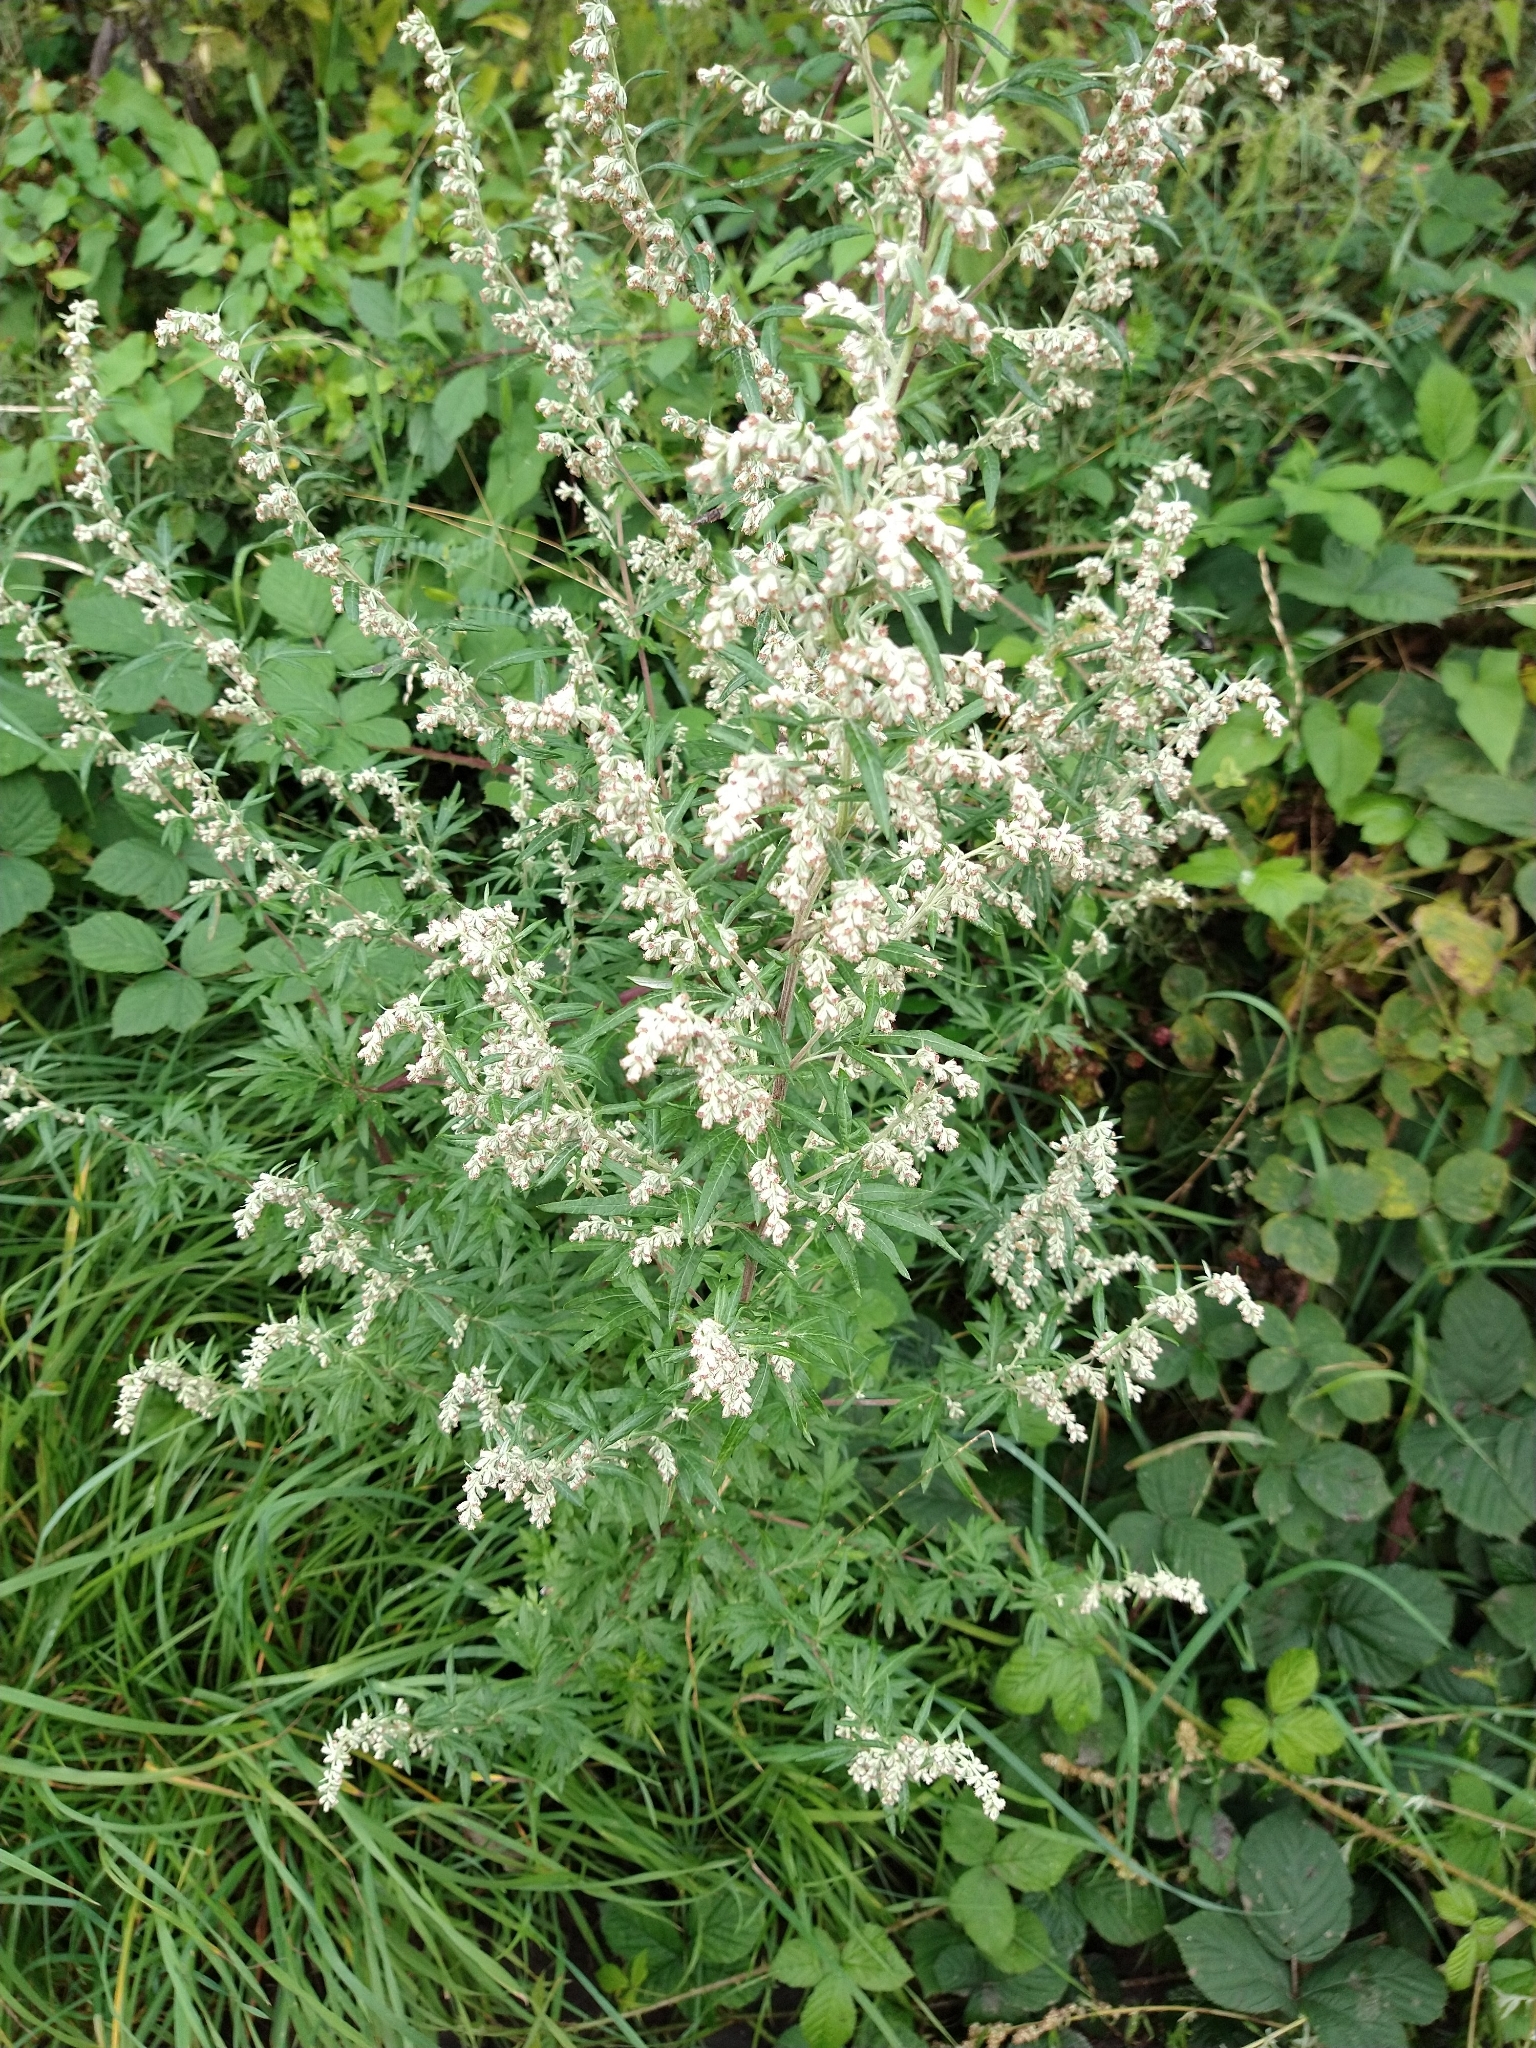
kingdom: Plantae
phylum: Tracheophyta
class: Magnoliopsida
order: Asterales
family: Asteraceae
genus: Artemisia
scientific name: Artemisia vulgaris
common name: Mugwort
